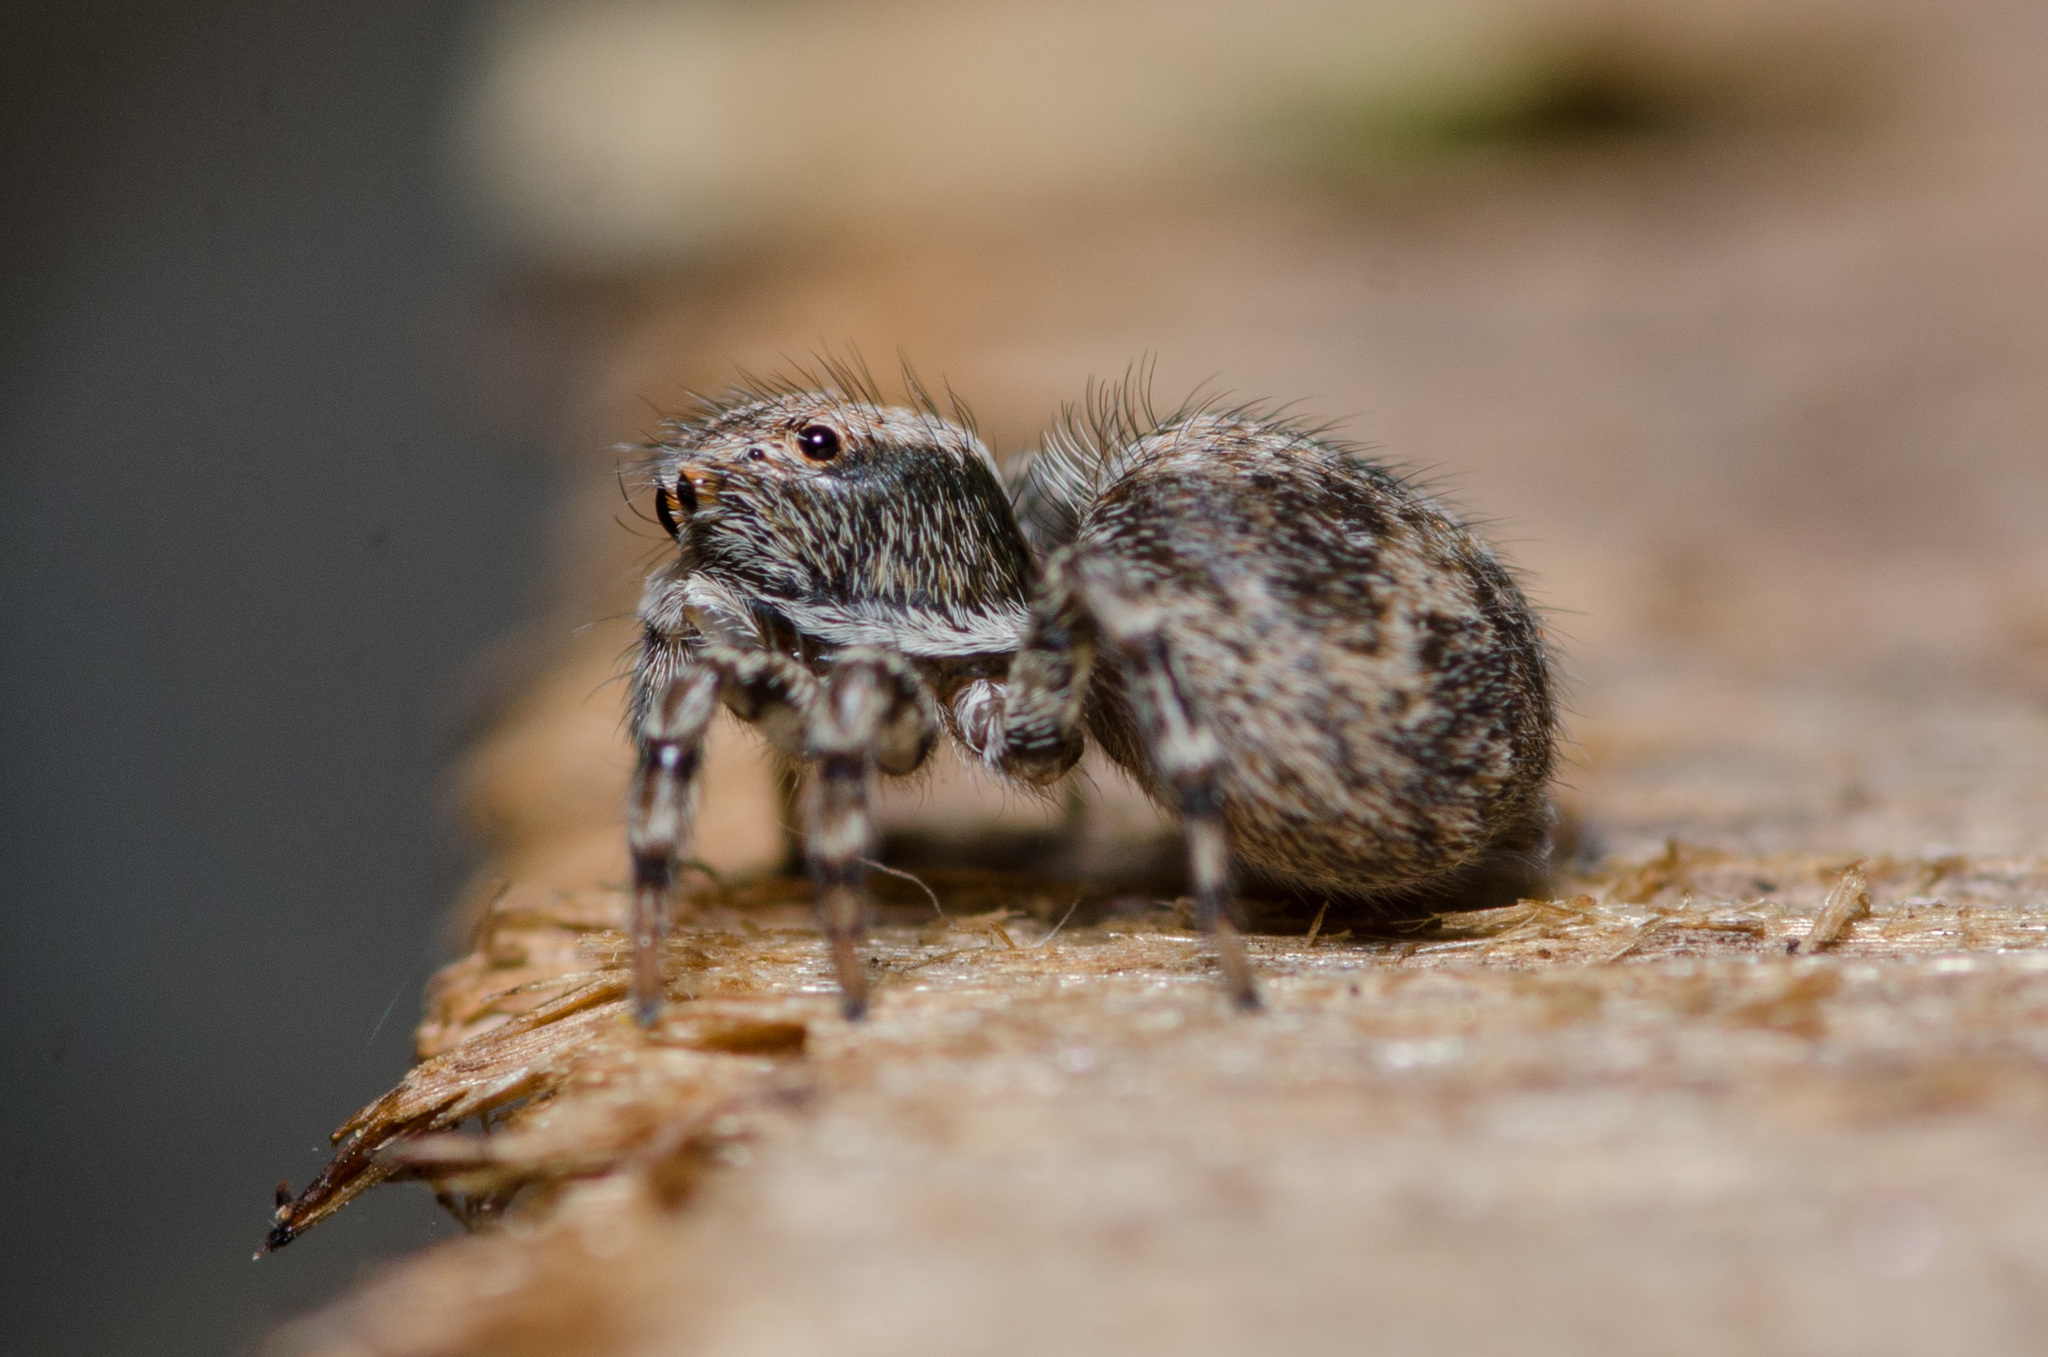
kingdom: Animalia
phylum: Arthropoda
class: Arachnida
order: Araneae
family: Salticidae
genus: Naphrys
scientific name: Naphrys pulex
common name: Flea jumping spider
